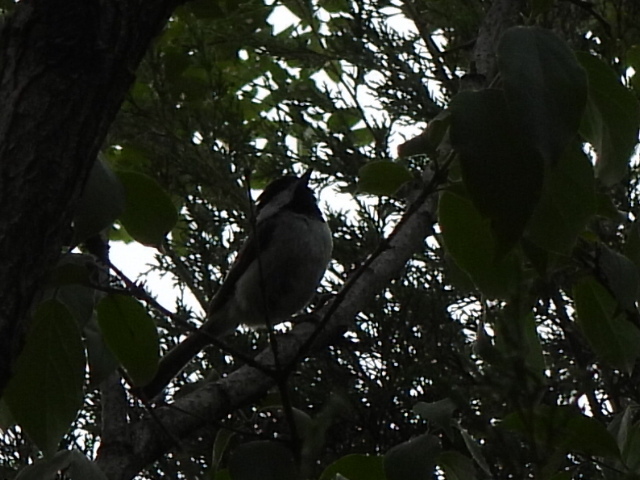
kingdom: Animalia
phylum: Chordata
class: Aves
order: Passeriformes
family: Paridae
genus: Poecile
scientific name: Poecile carolinensis
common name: Carolina chickadee
